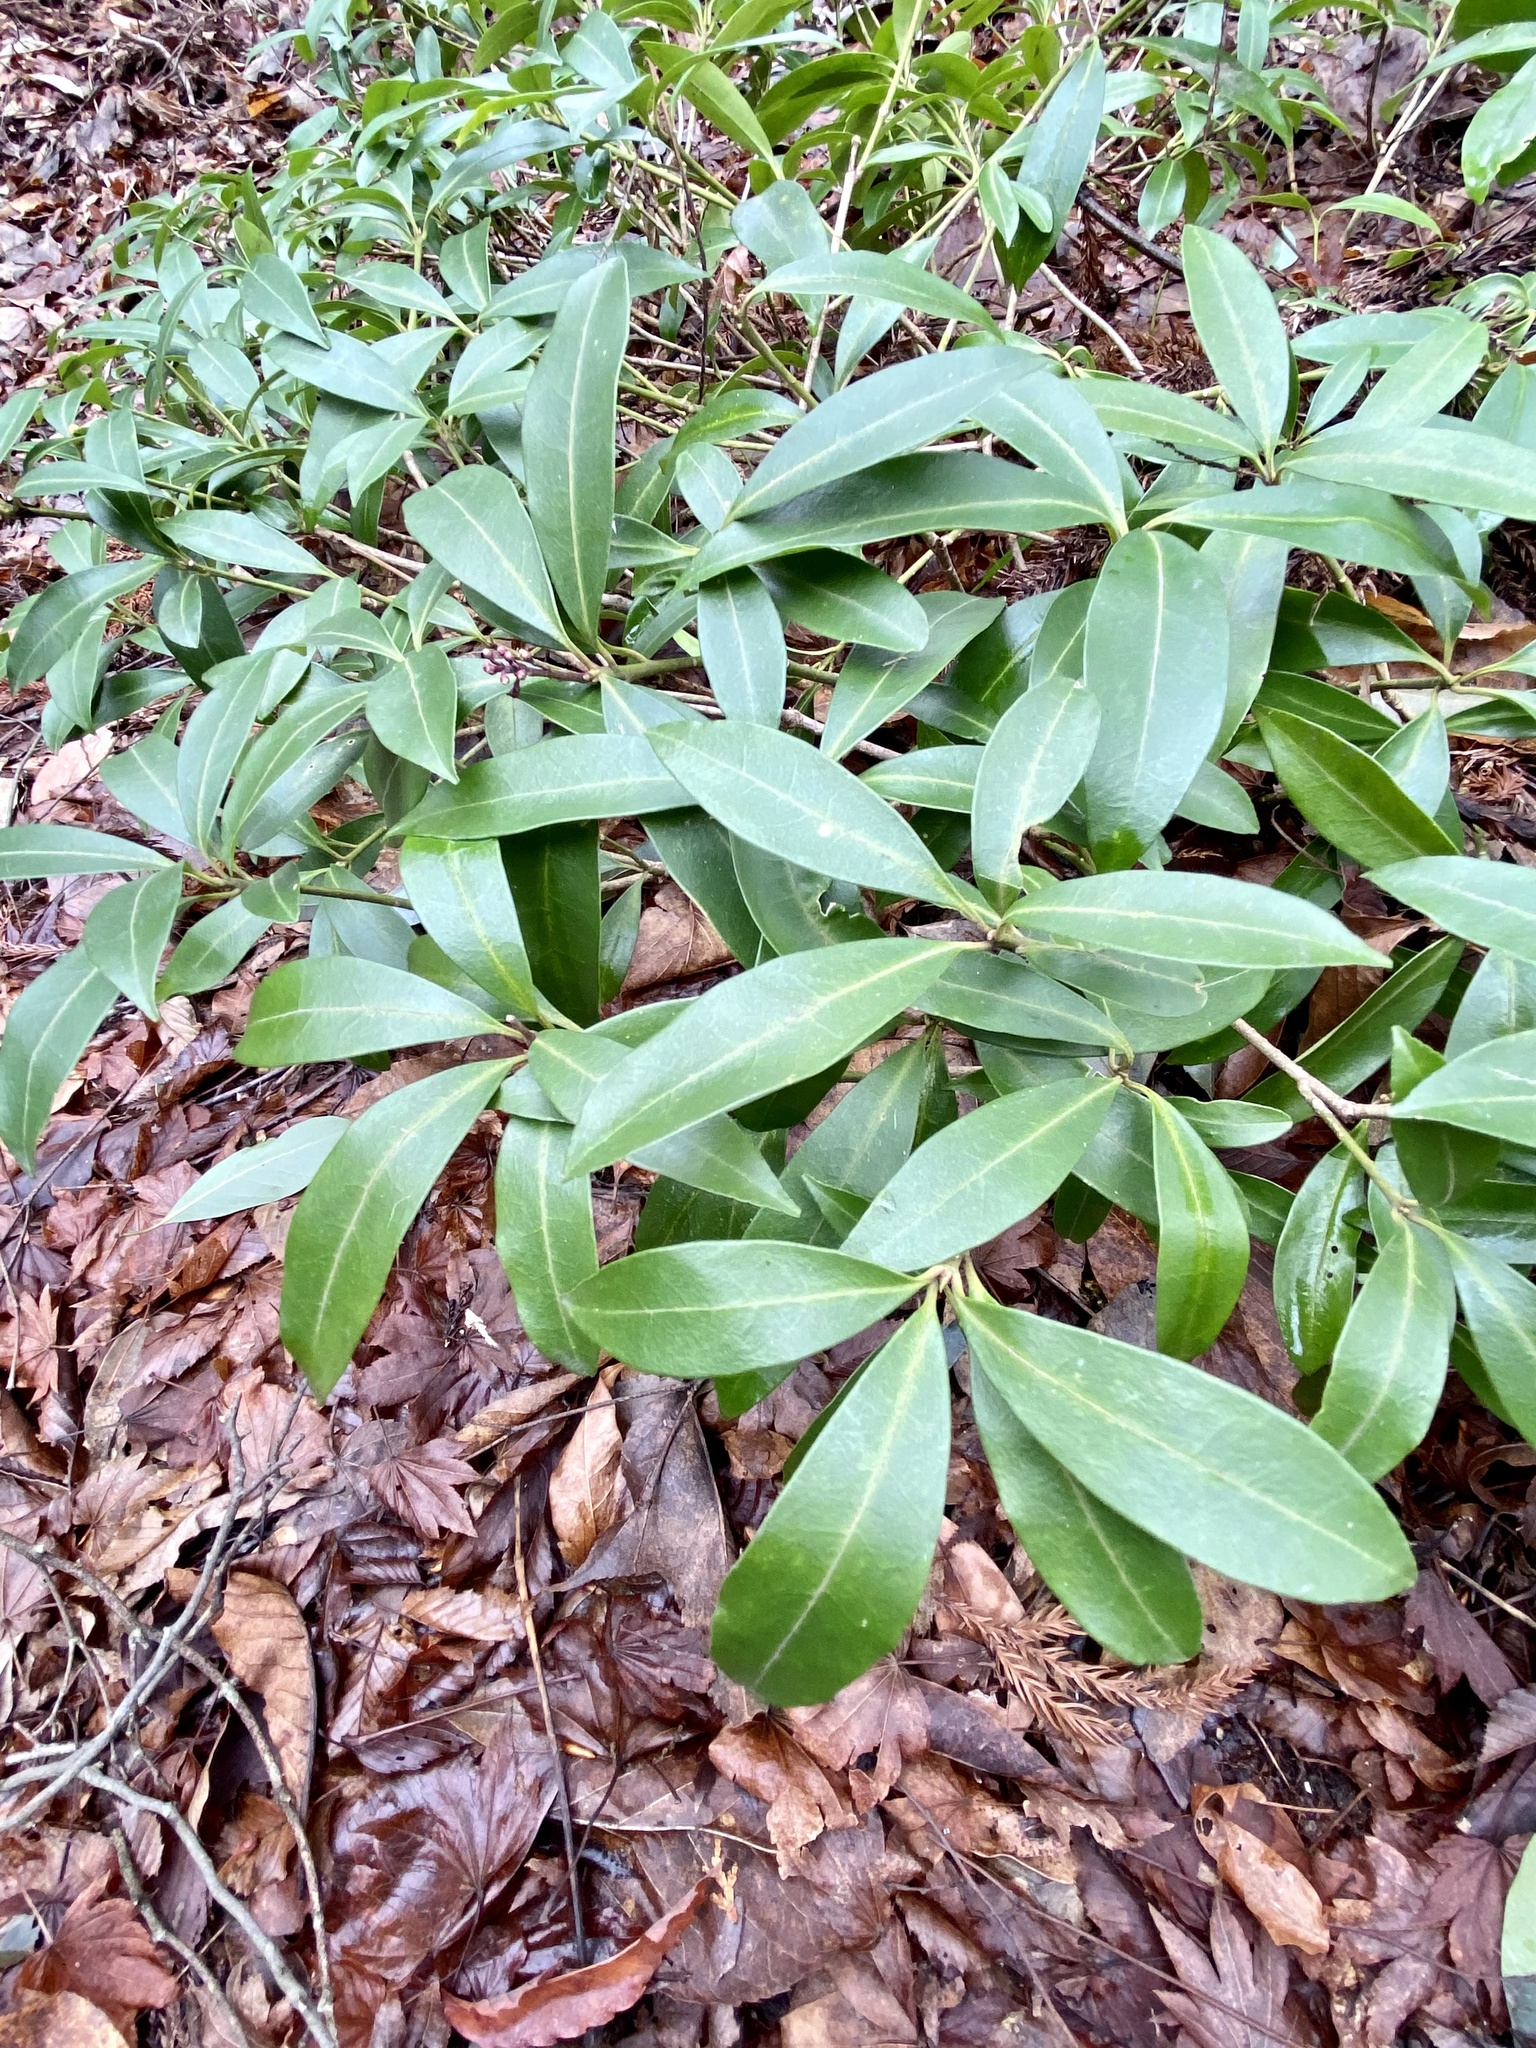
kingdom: Plantae
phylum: Tracheophyta
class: Magnoliopsida
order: Sapindales
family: Rutaceae
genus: Skimmia
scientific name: Skimmia japonica
